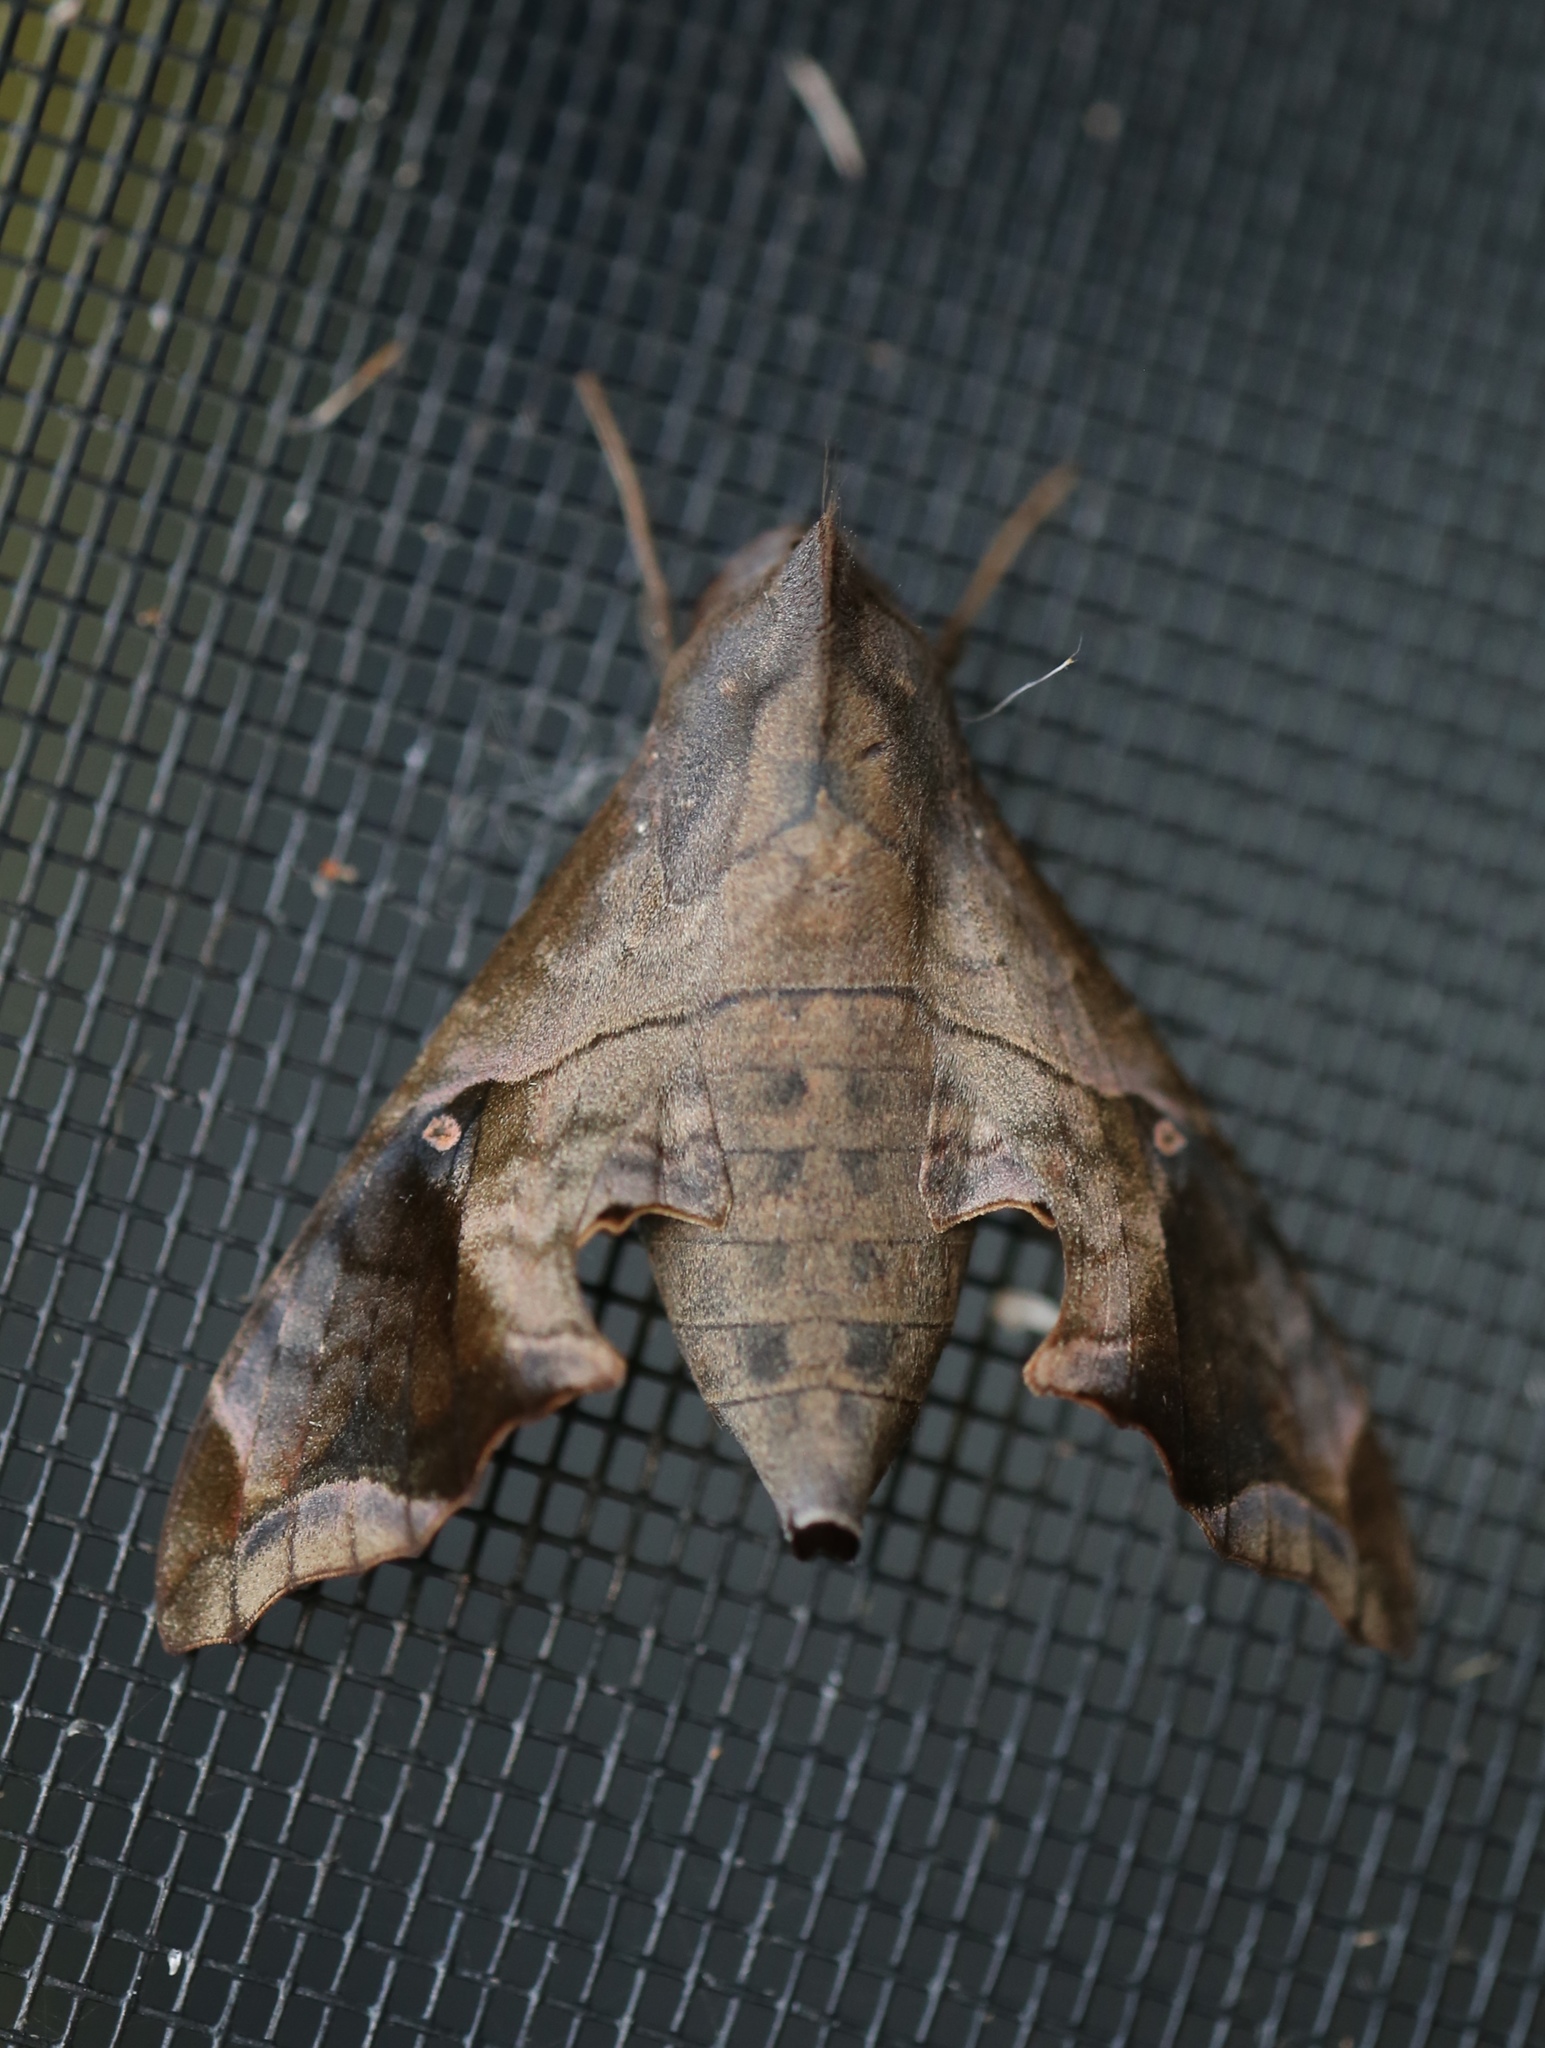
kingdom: Animalia
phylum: Arthropoda
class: Insecta
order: Lepidoptera
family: Sphingidae
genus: Enyo
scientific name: Enyo lugubris
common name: Mournful sphinx
